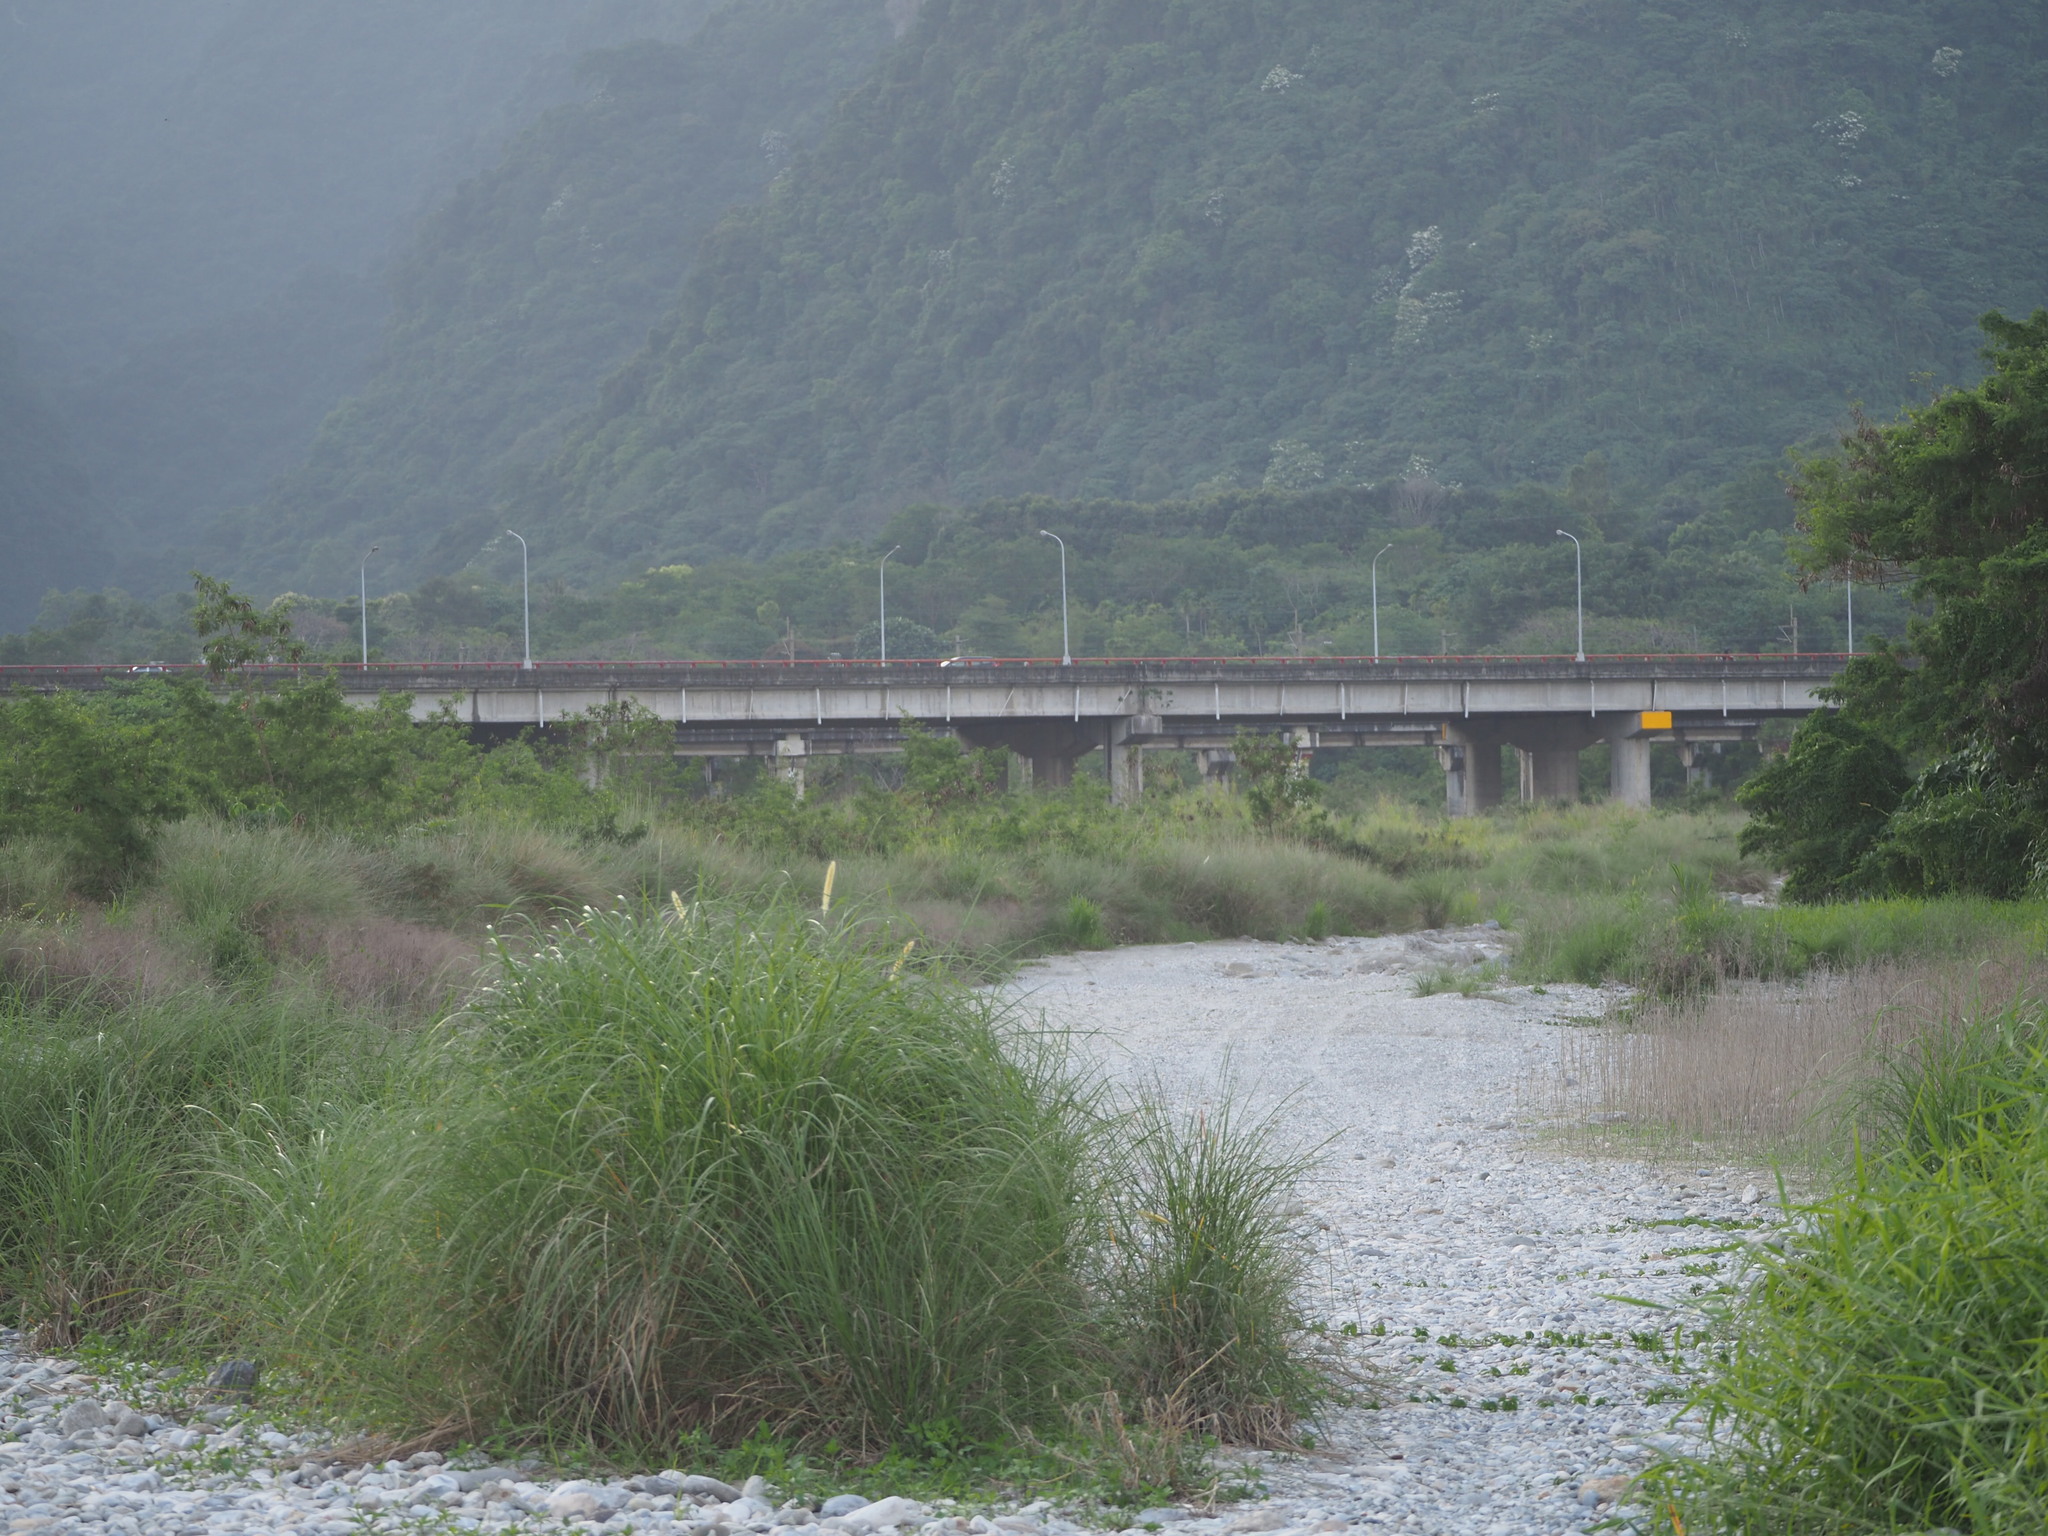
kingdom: Plantae
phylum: Tracheophyta
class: Liliopsida
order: Poales
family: Poaceae
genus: Cenchrus
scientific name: Cenchrus purpureus
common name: Elephant grass
